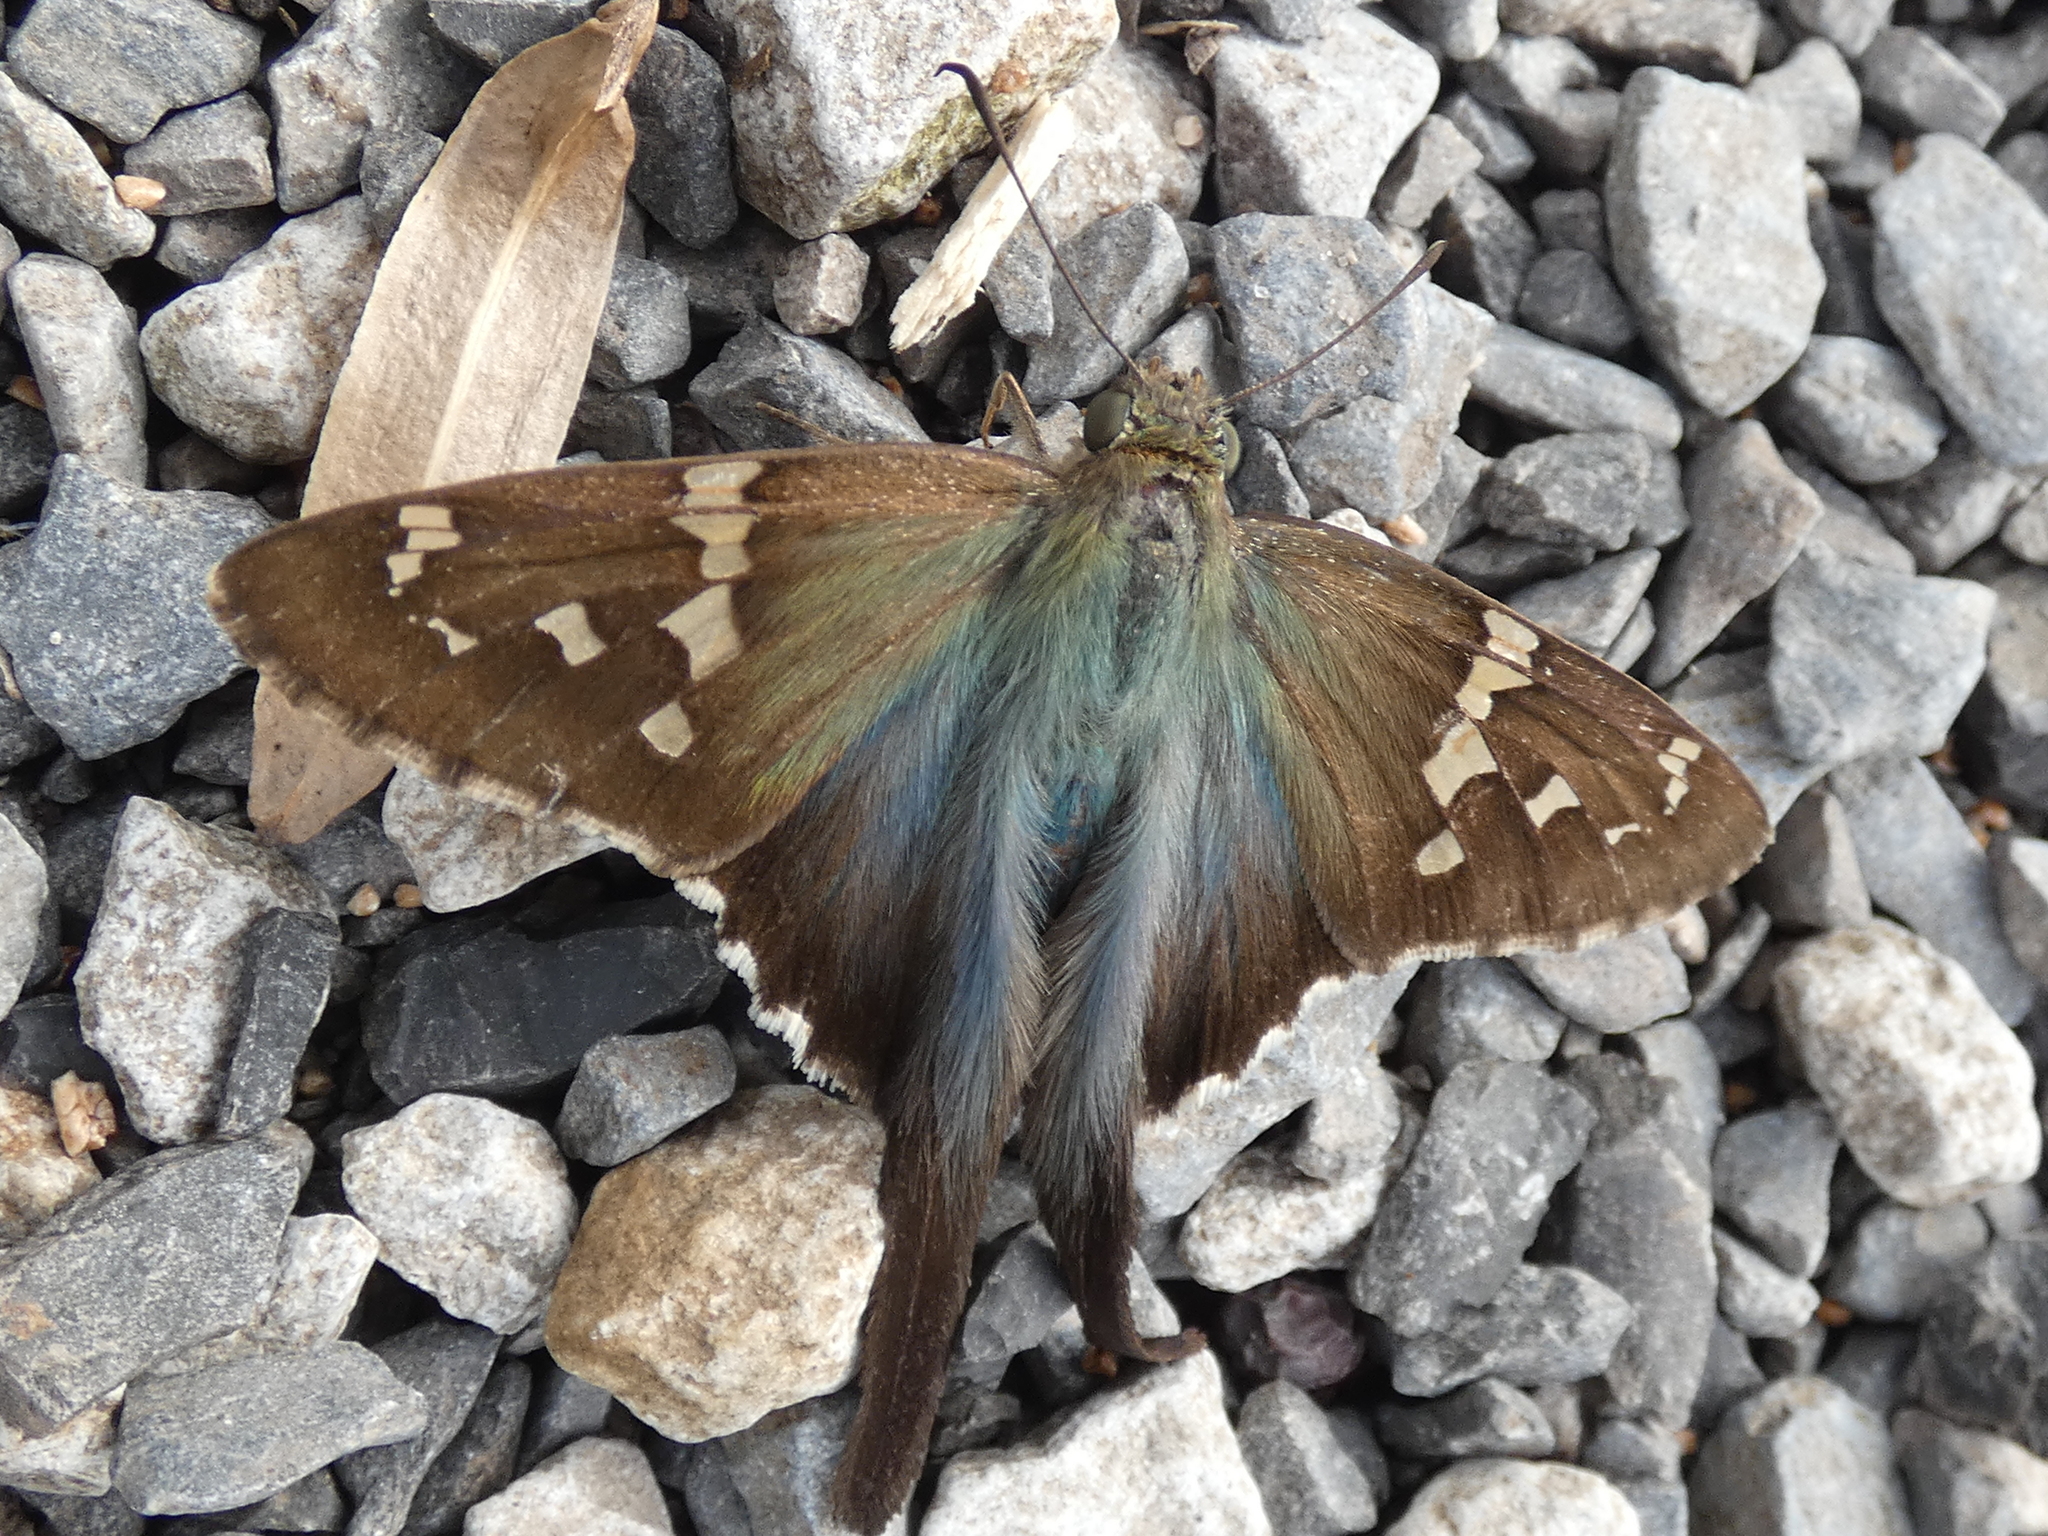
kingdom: Animalia
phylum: Arthropoda
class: Insecta
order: Lepidoptera
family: Hesperiidae
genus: Urbanus
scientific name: Urbanus proteus
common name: Long-tailed skipper
